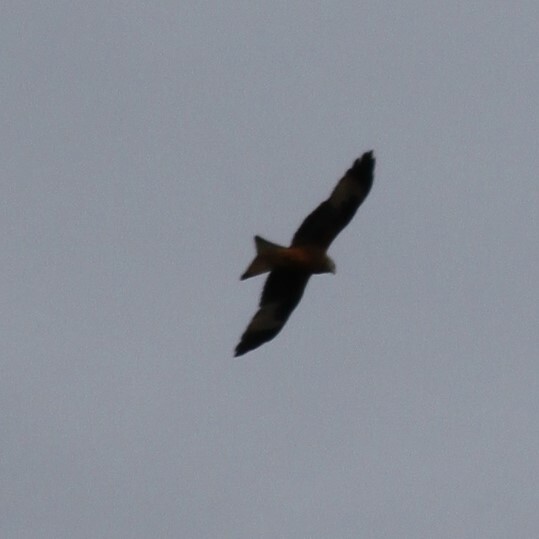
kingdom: Animalia
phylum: Chordata
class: Aves
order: Accipitriformes
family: Accipitridae
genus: Milvus
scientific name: Milvus milvus
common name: Red kite
